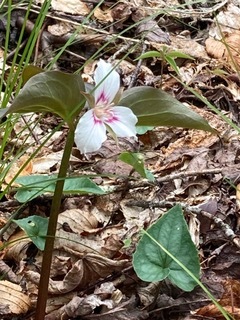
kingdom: Plantae
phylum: Tracheophyta
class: Liliopsida
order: Liliales
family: Melanthiaceae
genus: Trillium
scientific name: Trillium undulatum
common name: Paint trillium
